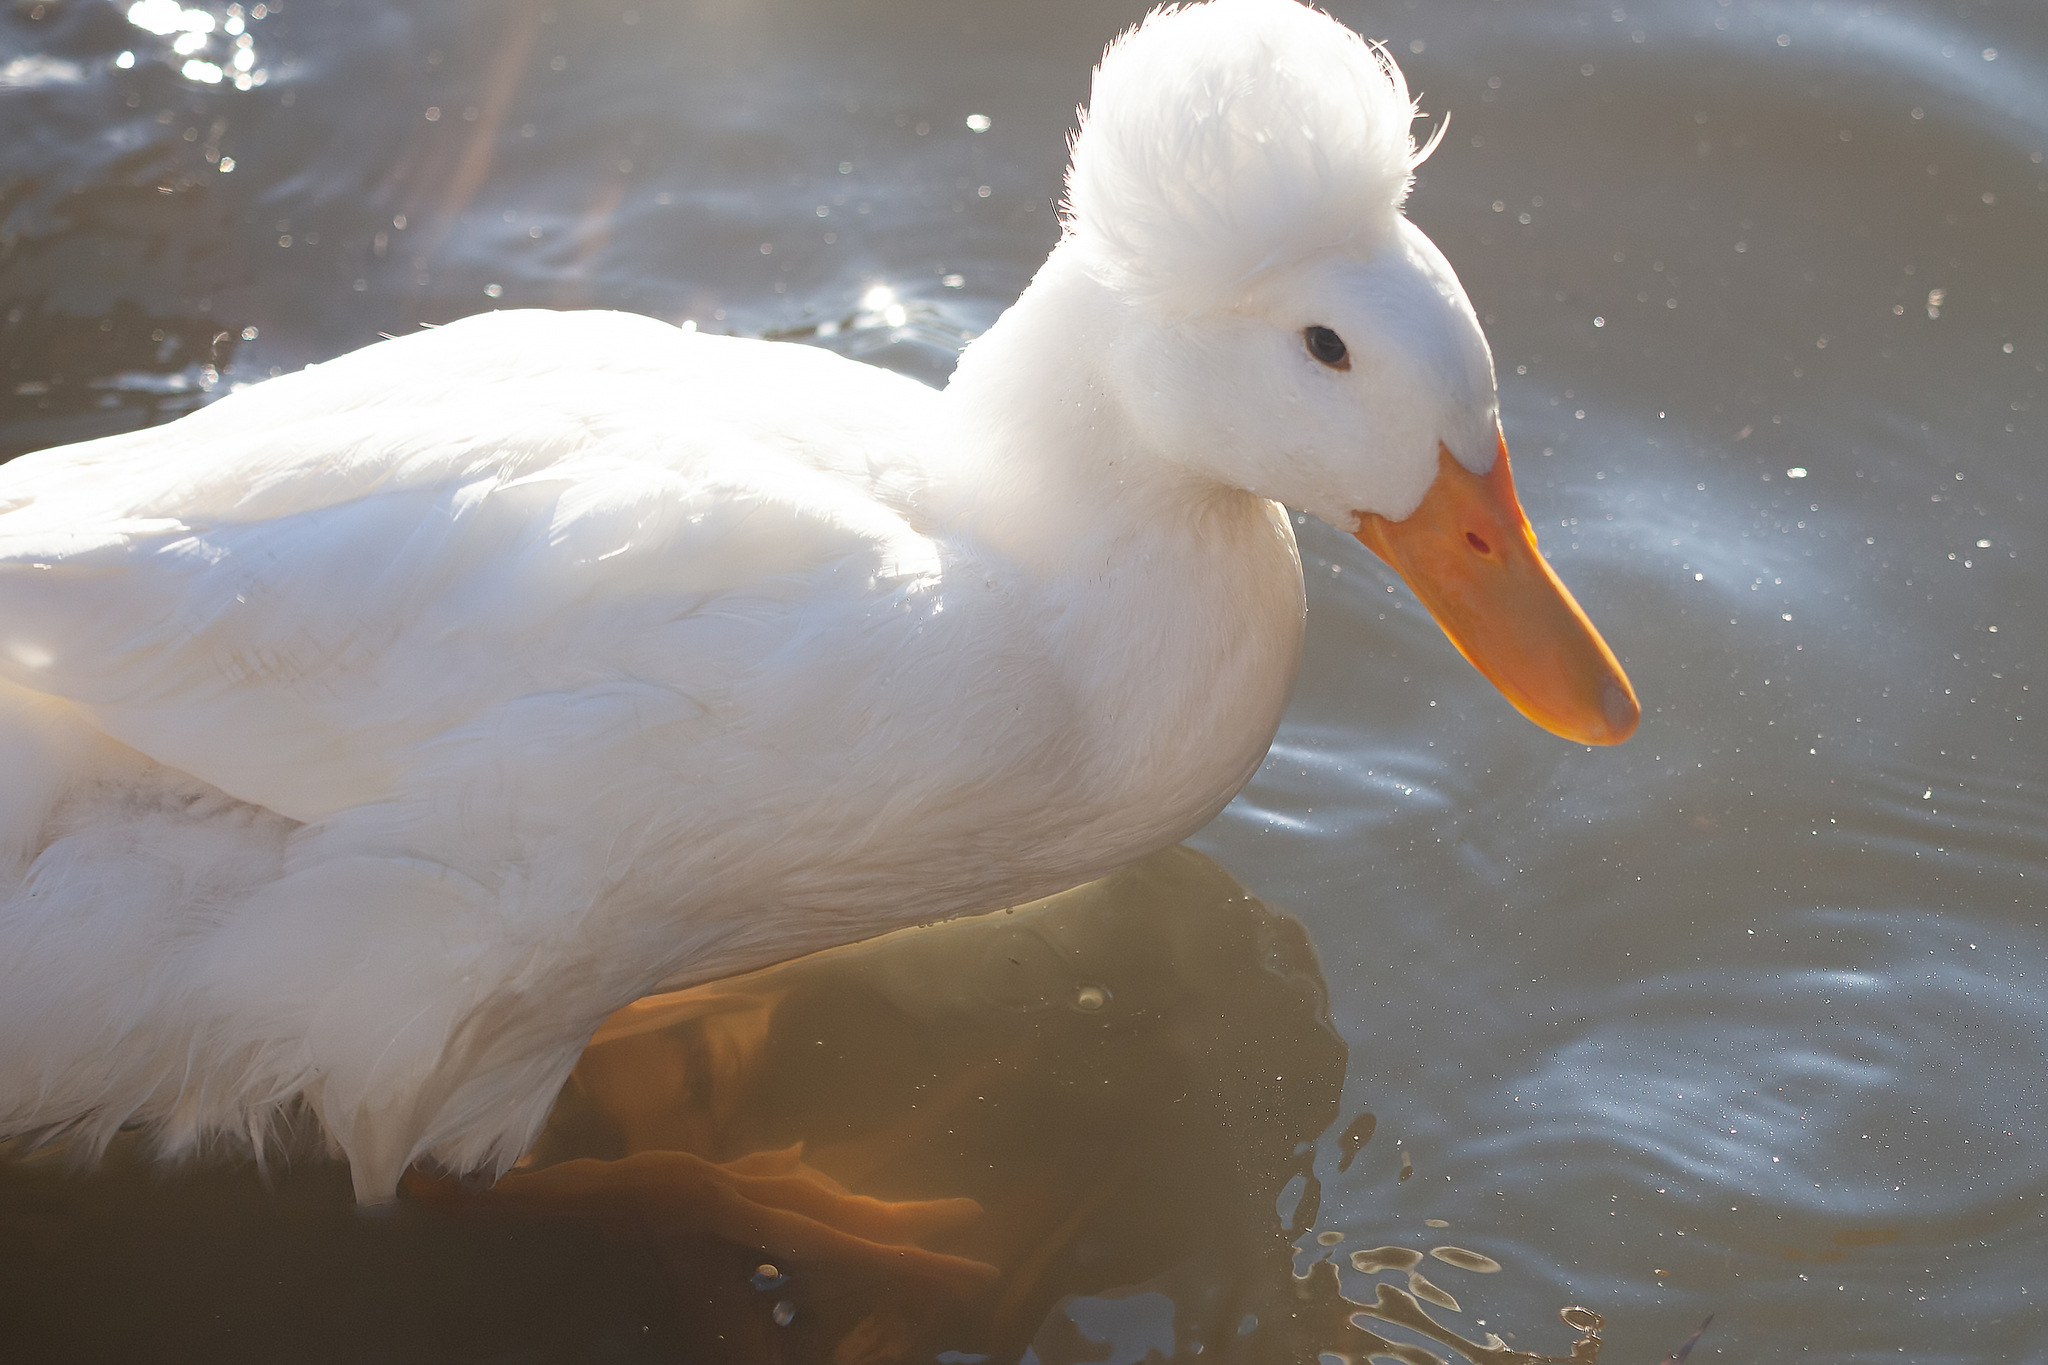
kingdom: Animalia
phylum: Chordata
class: Aves
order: Anseriformes
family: Anatidae
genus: Anas
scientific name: Anas platyrhynchos
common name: Mallard
